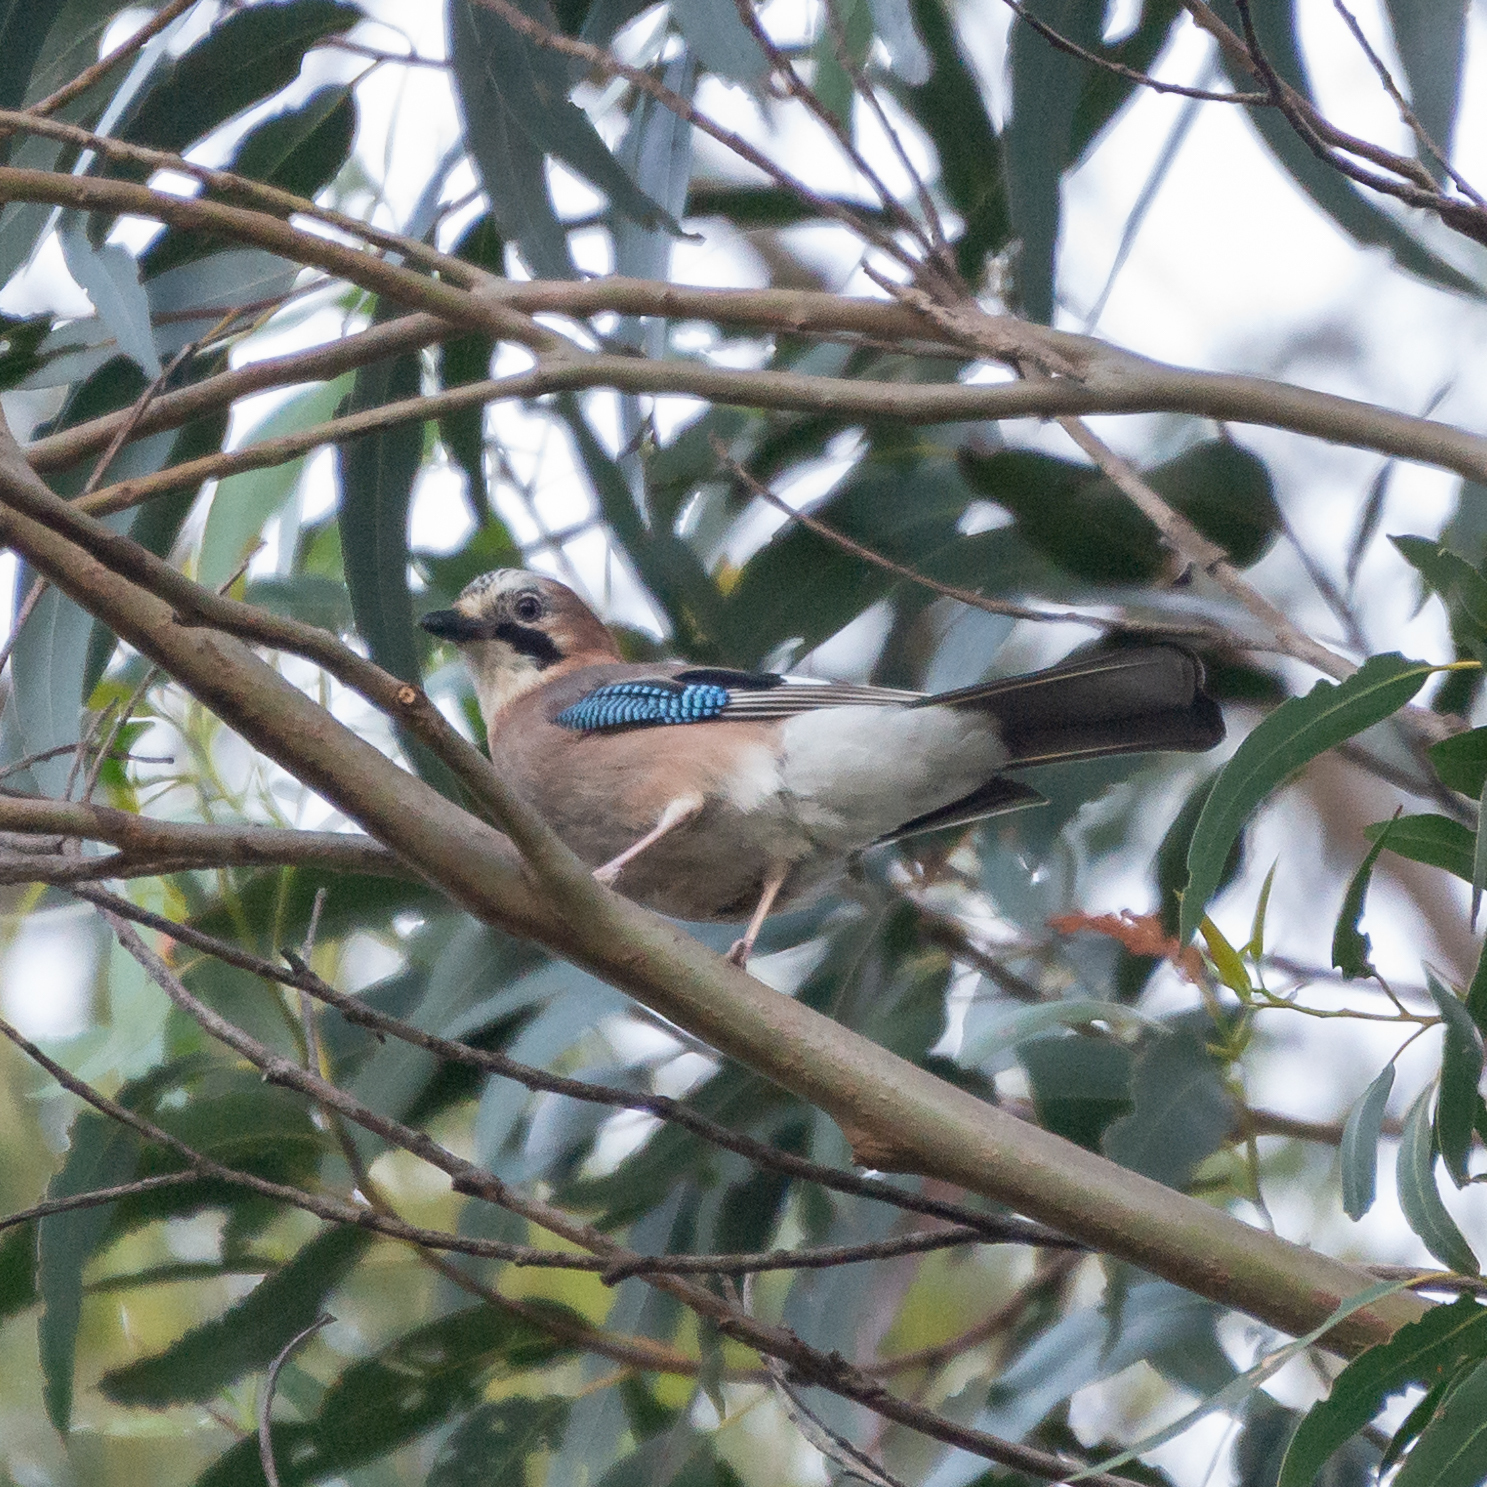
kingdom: Animalia
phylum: Chordata
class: Aves
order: Passeriformes
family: Corvidae
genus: Garrulus
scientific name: Garrulus glandarius
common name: Eurasian jay
